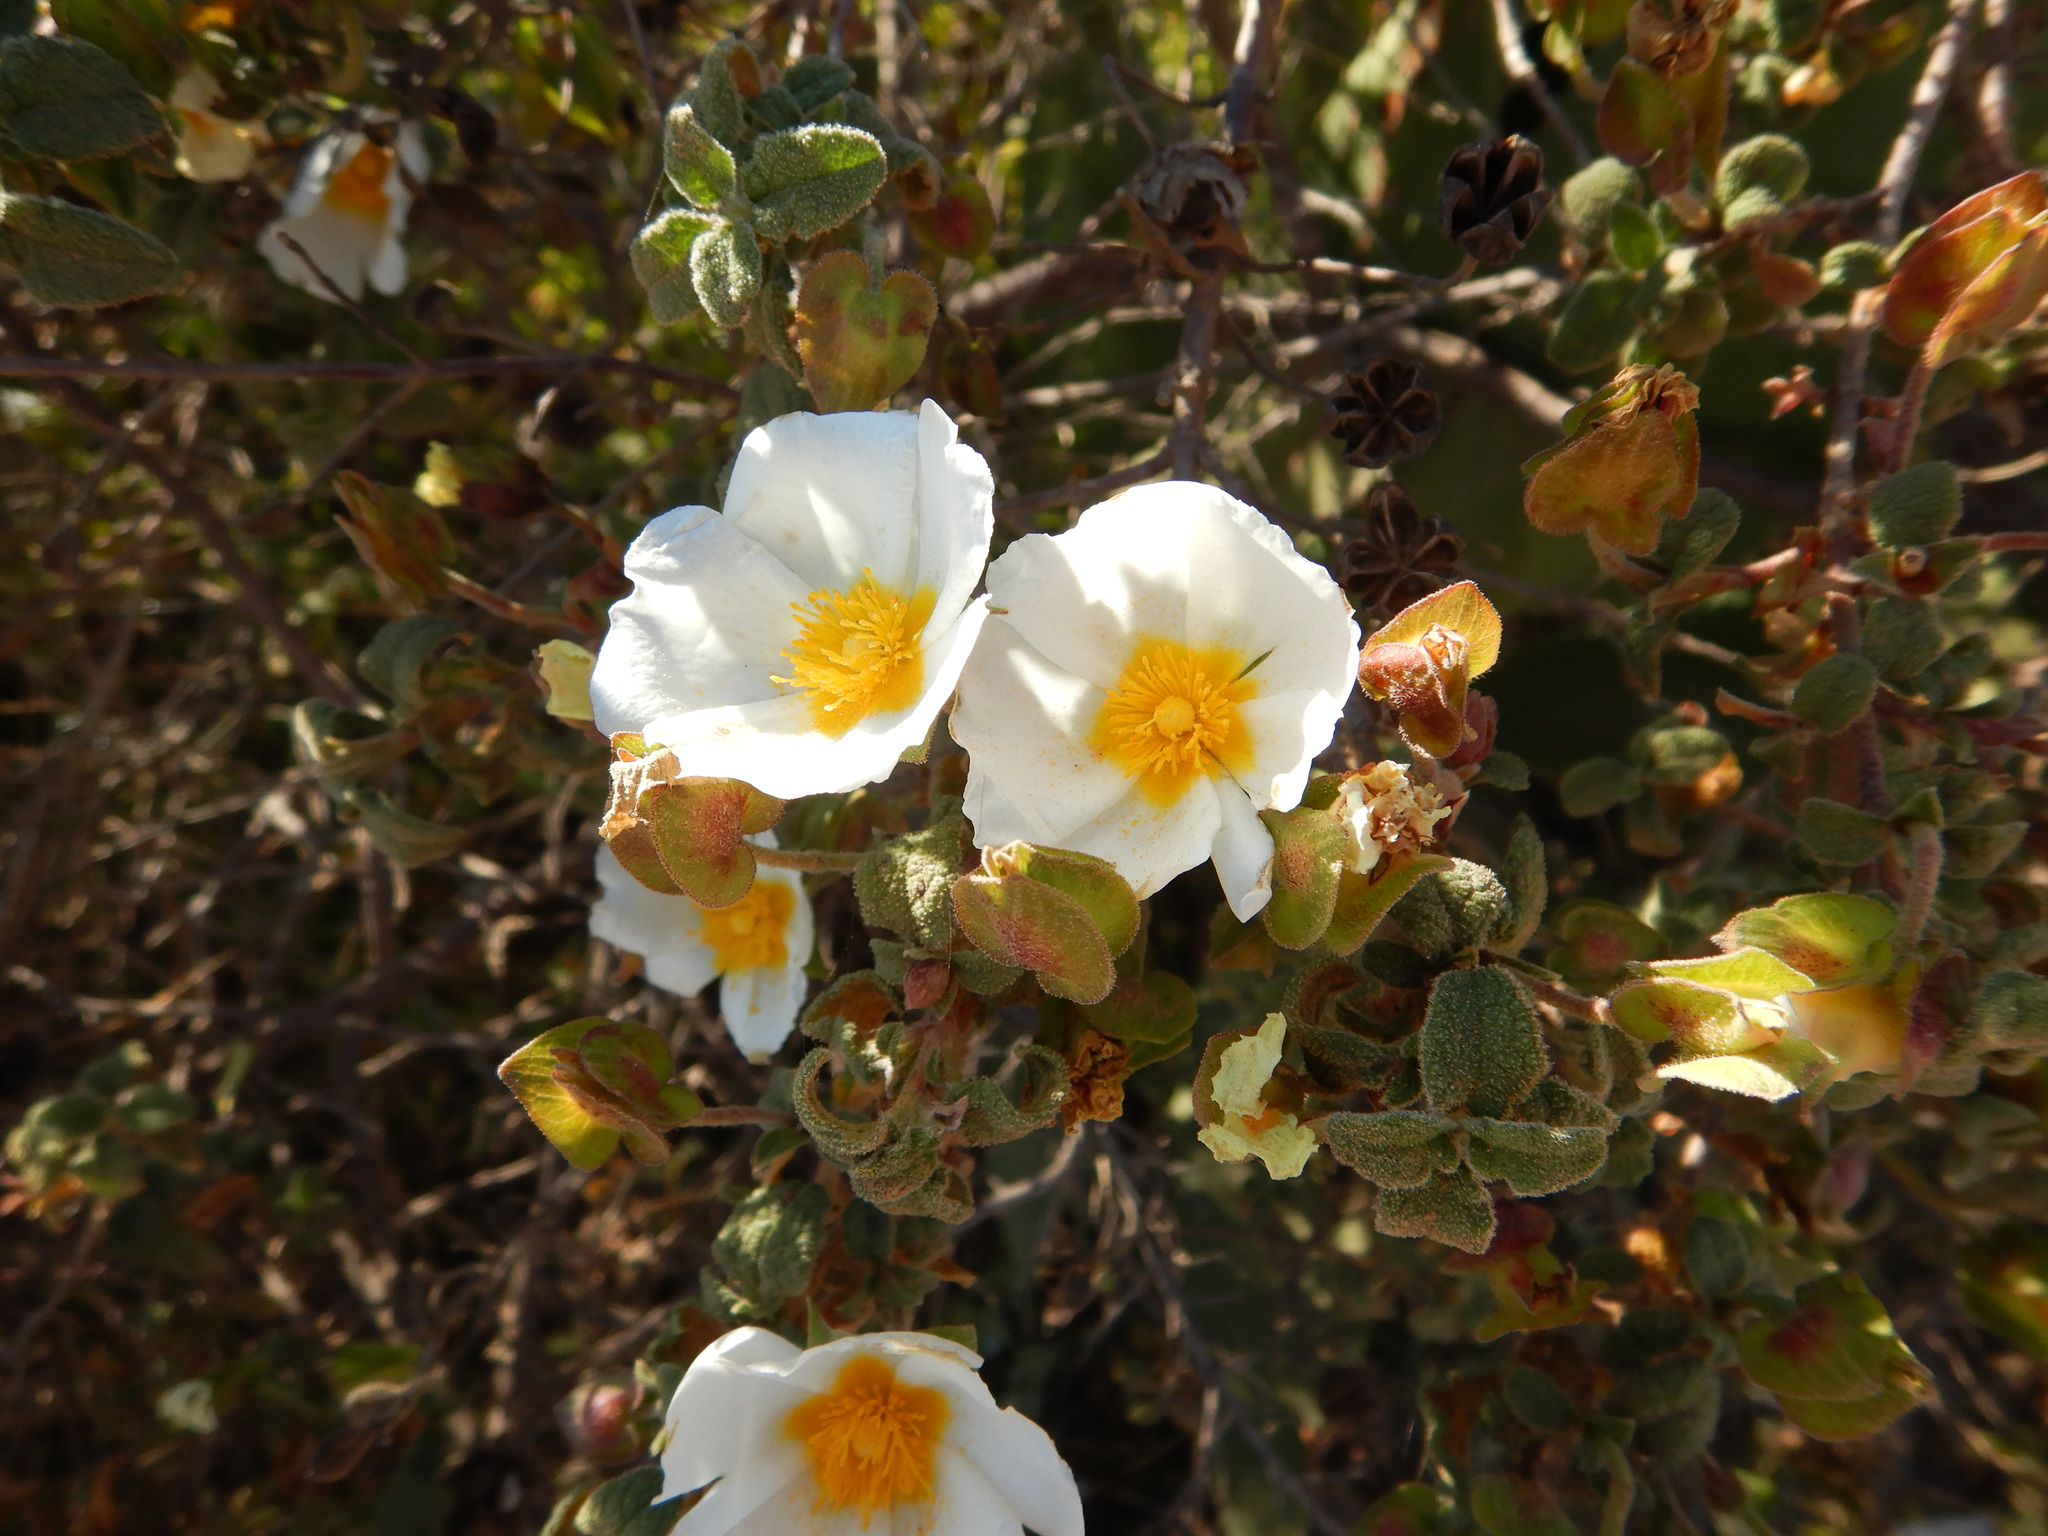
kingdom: Plantae
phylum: Tracheophyta
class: Magnoliopsida
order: Malvales
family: Cistaceae
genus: Cistus
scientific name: Cistus salviifolius
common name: Salvia cistus
